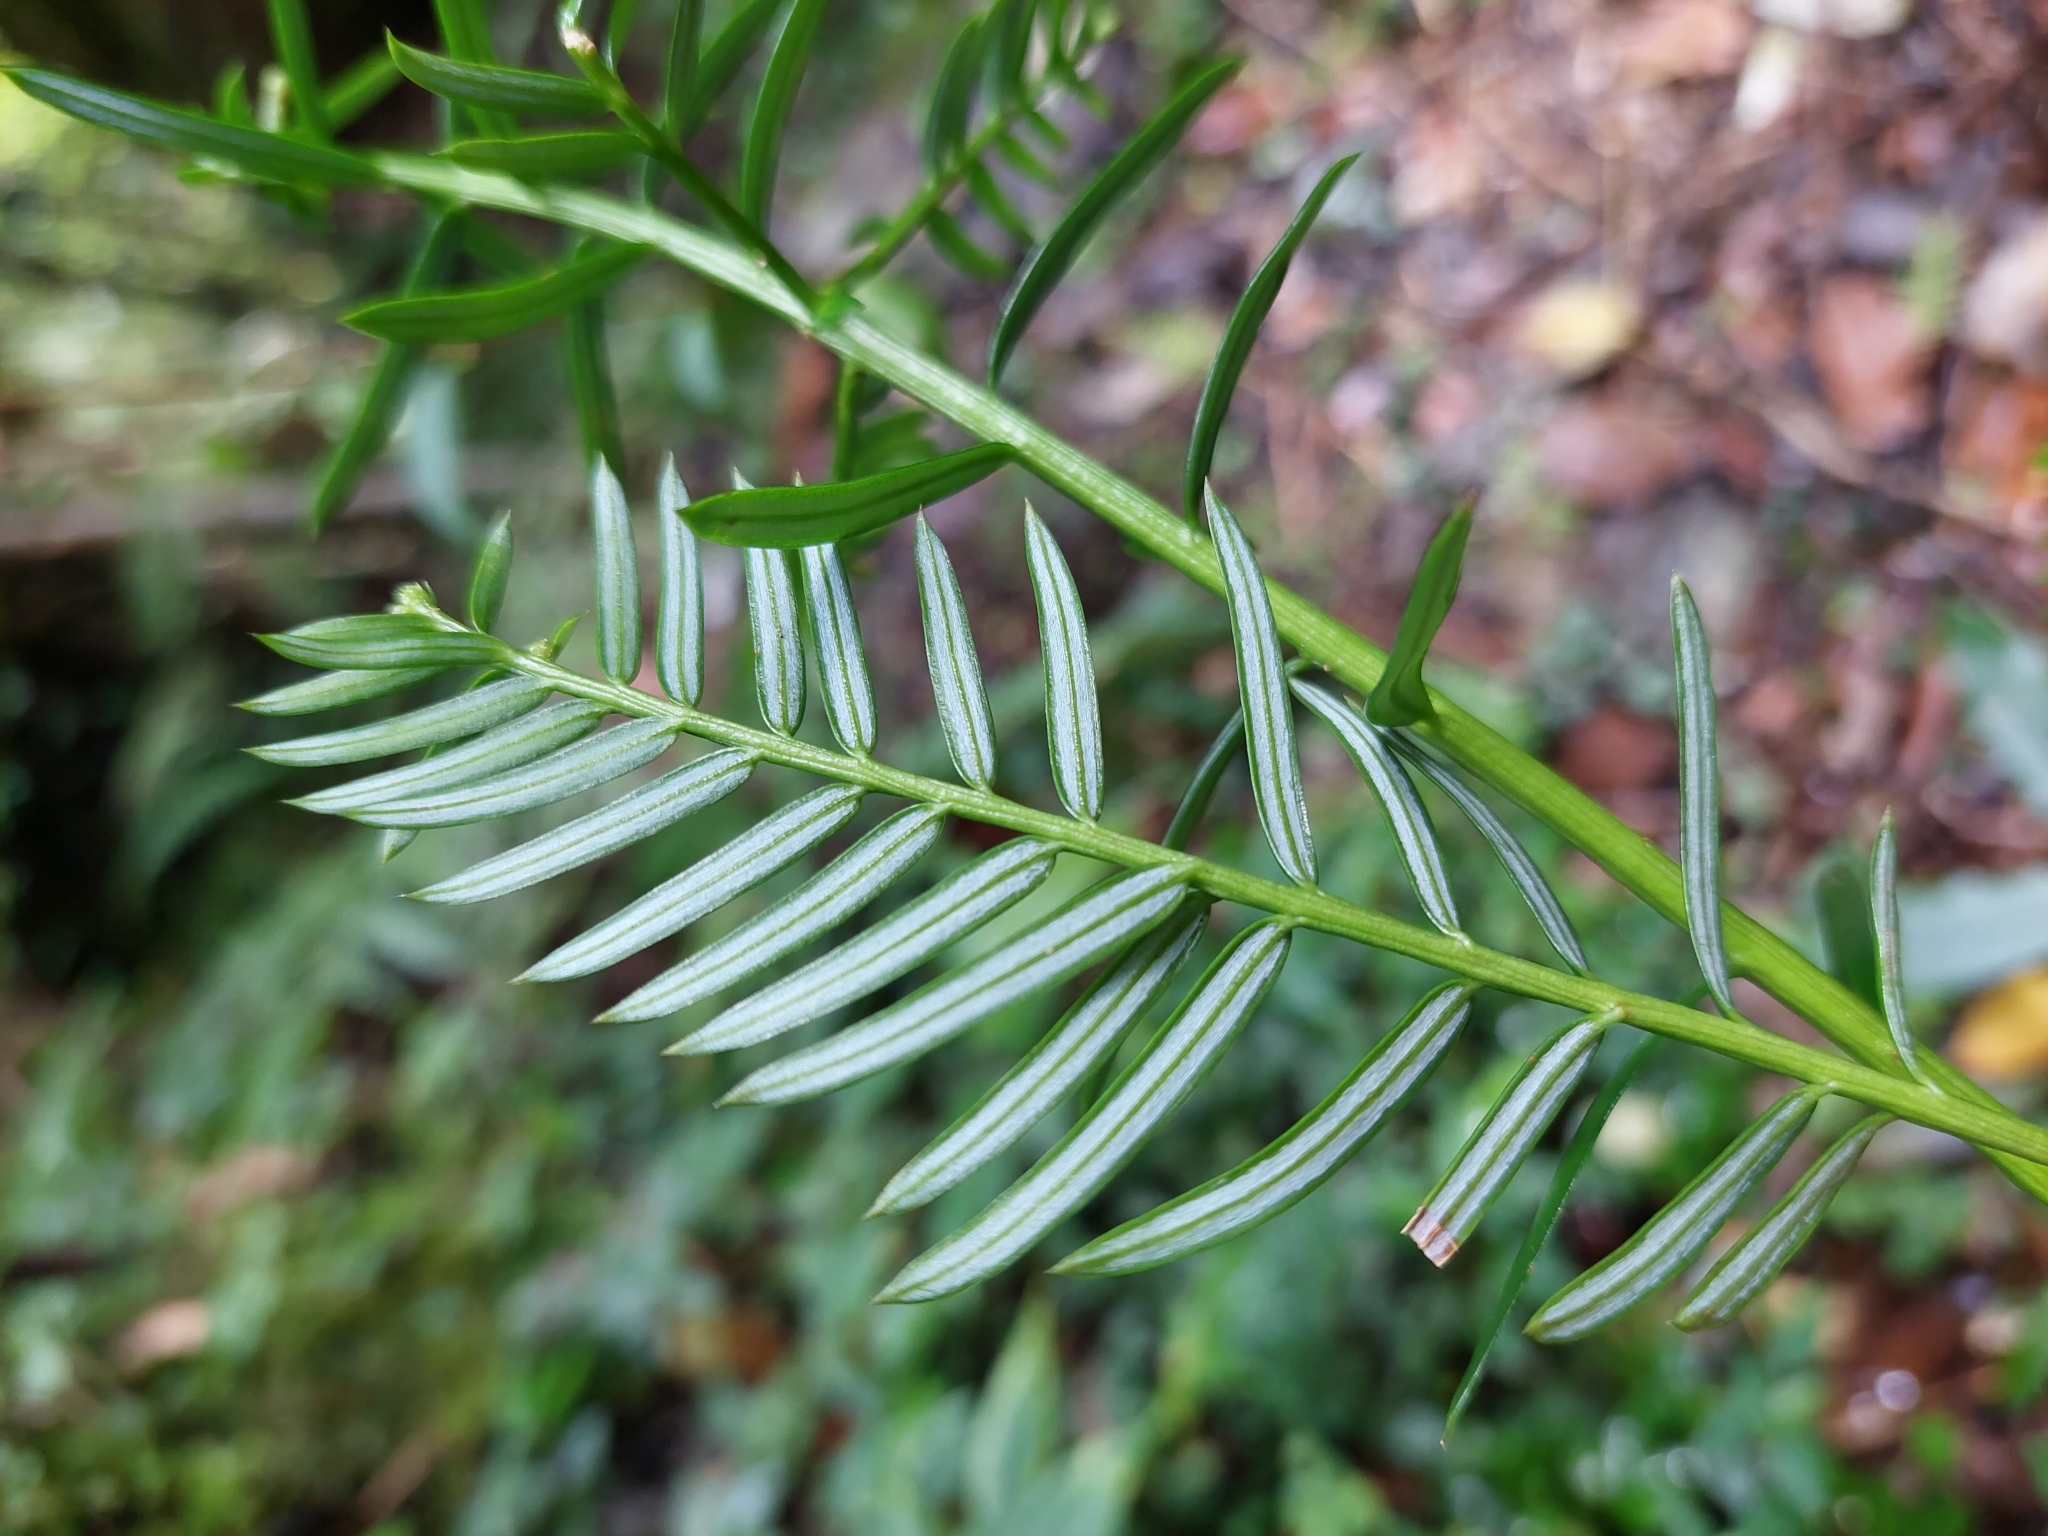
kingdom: Plantae
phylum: Tracheophyta
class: Pinopsida
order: Pinales
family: Cephalotaxaceae
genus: Cephalotaxus
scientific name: Cephalotaxus harringtonii
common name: Harrington's plum yew
